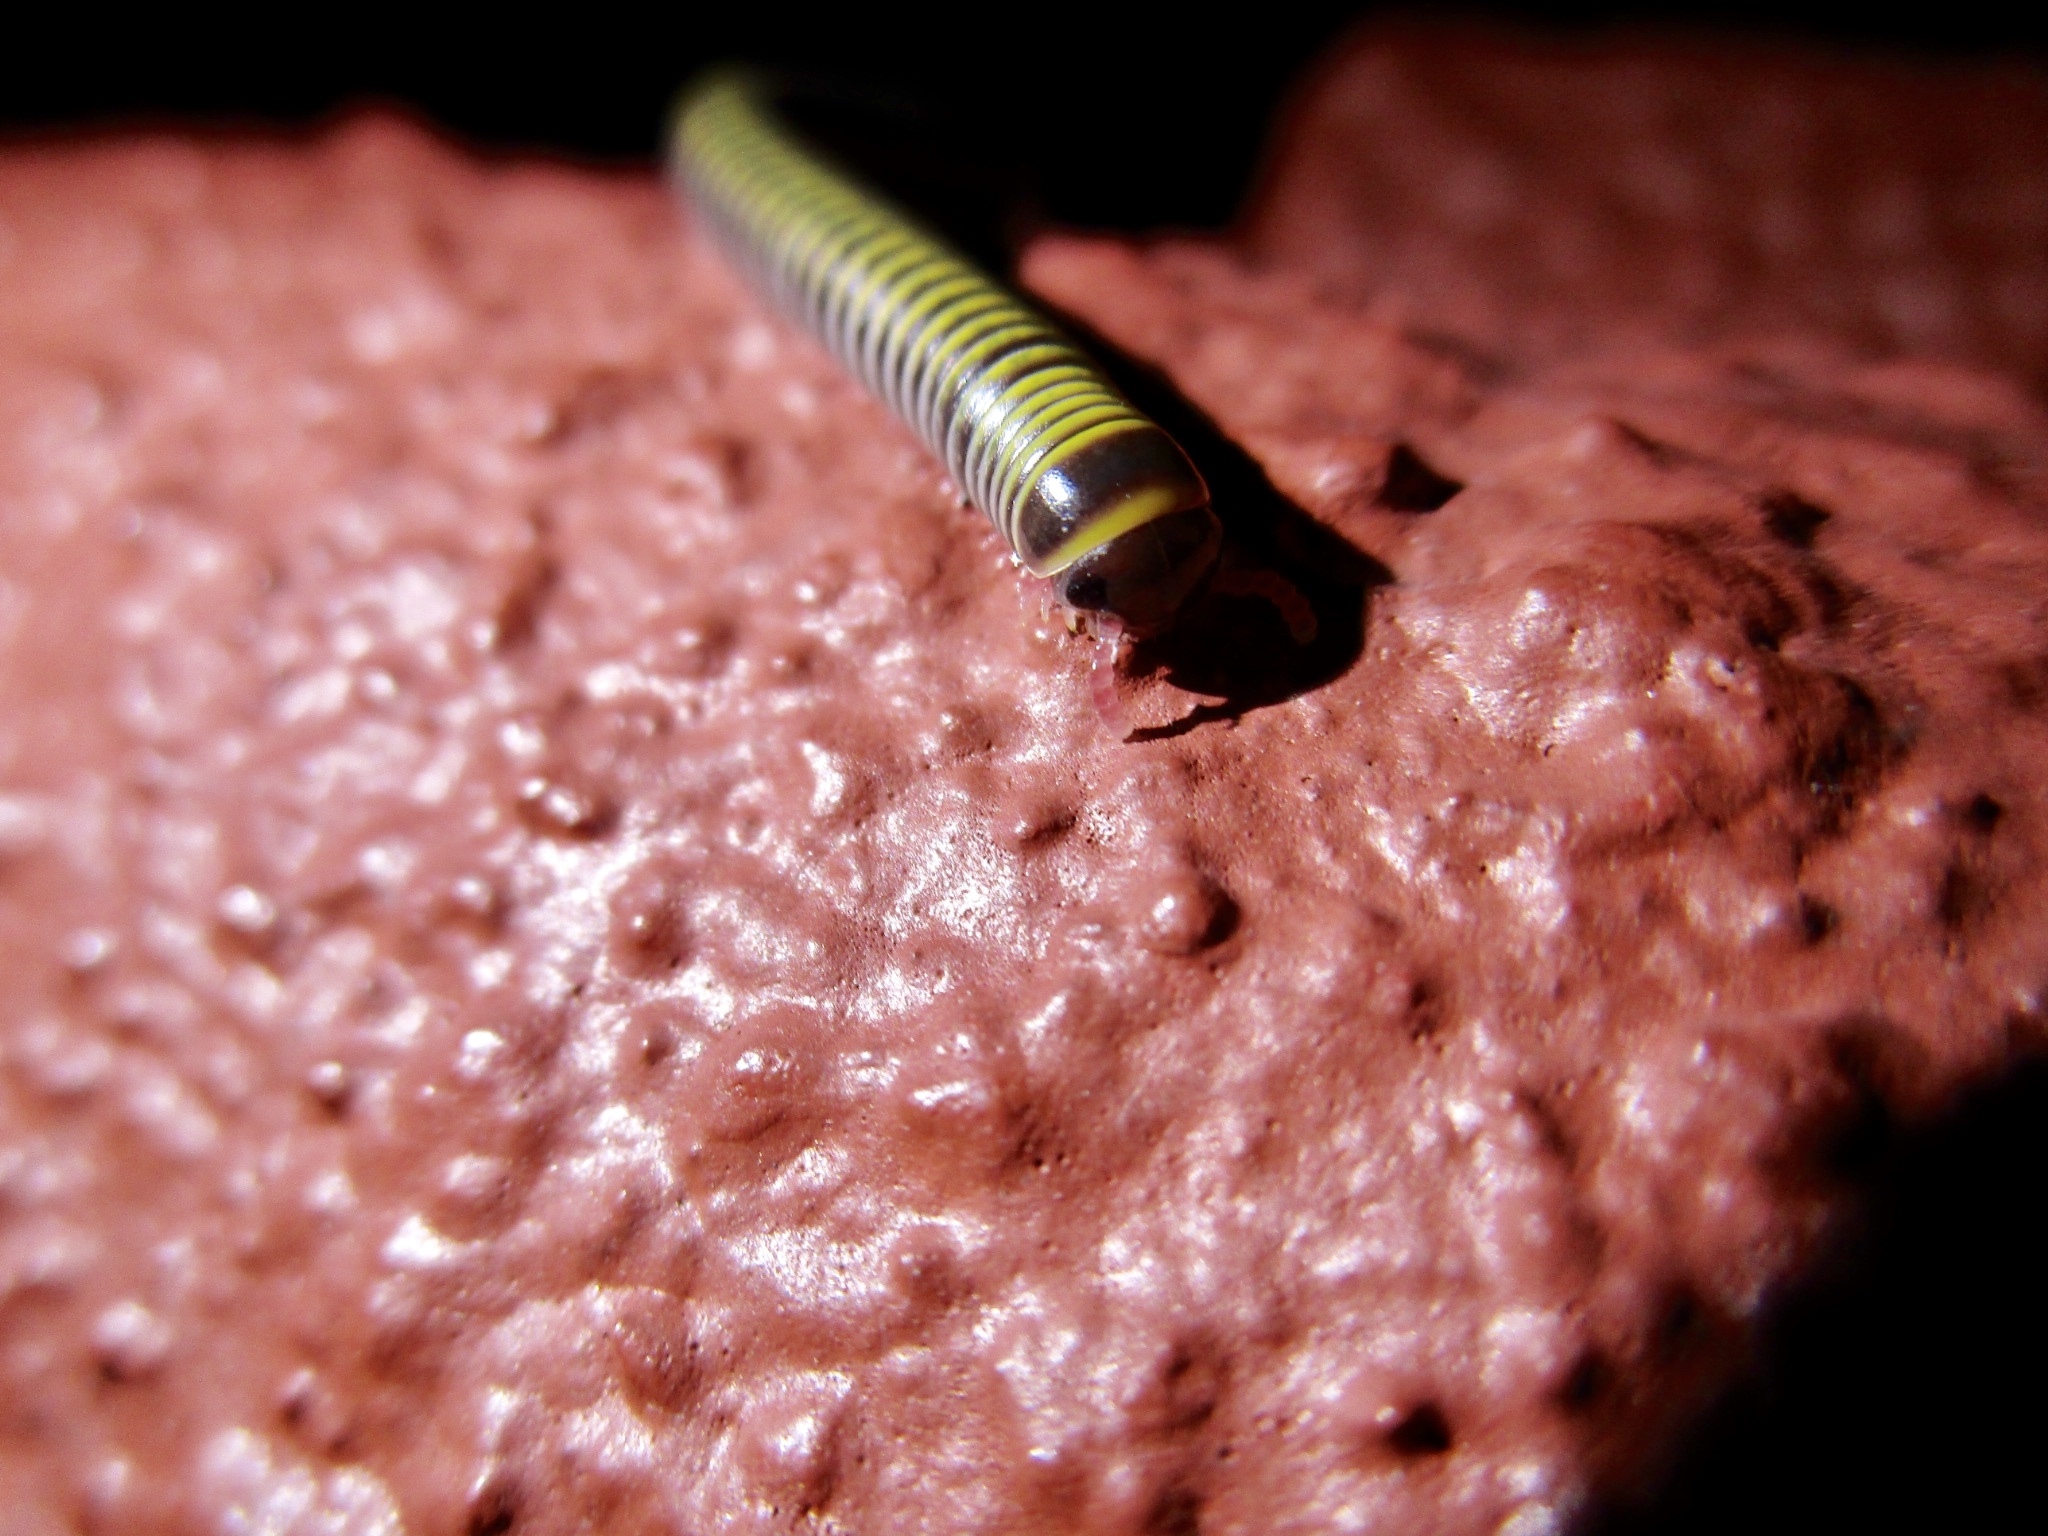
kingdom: Animalia
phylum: Arthropoda
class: Diplopoda
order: Spirobolida
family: Rhinocricidae
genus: Anadenobolus
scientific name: Anadenobolus monilicornis
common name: Caribbean millipede
